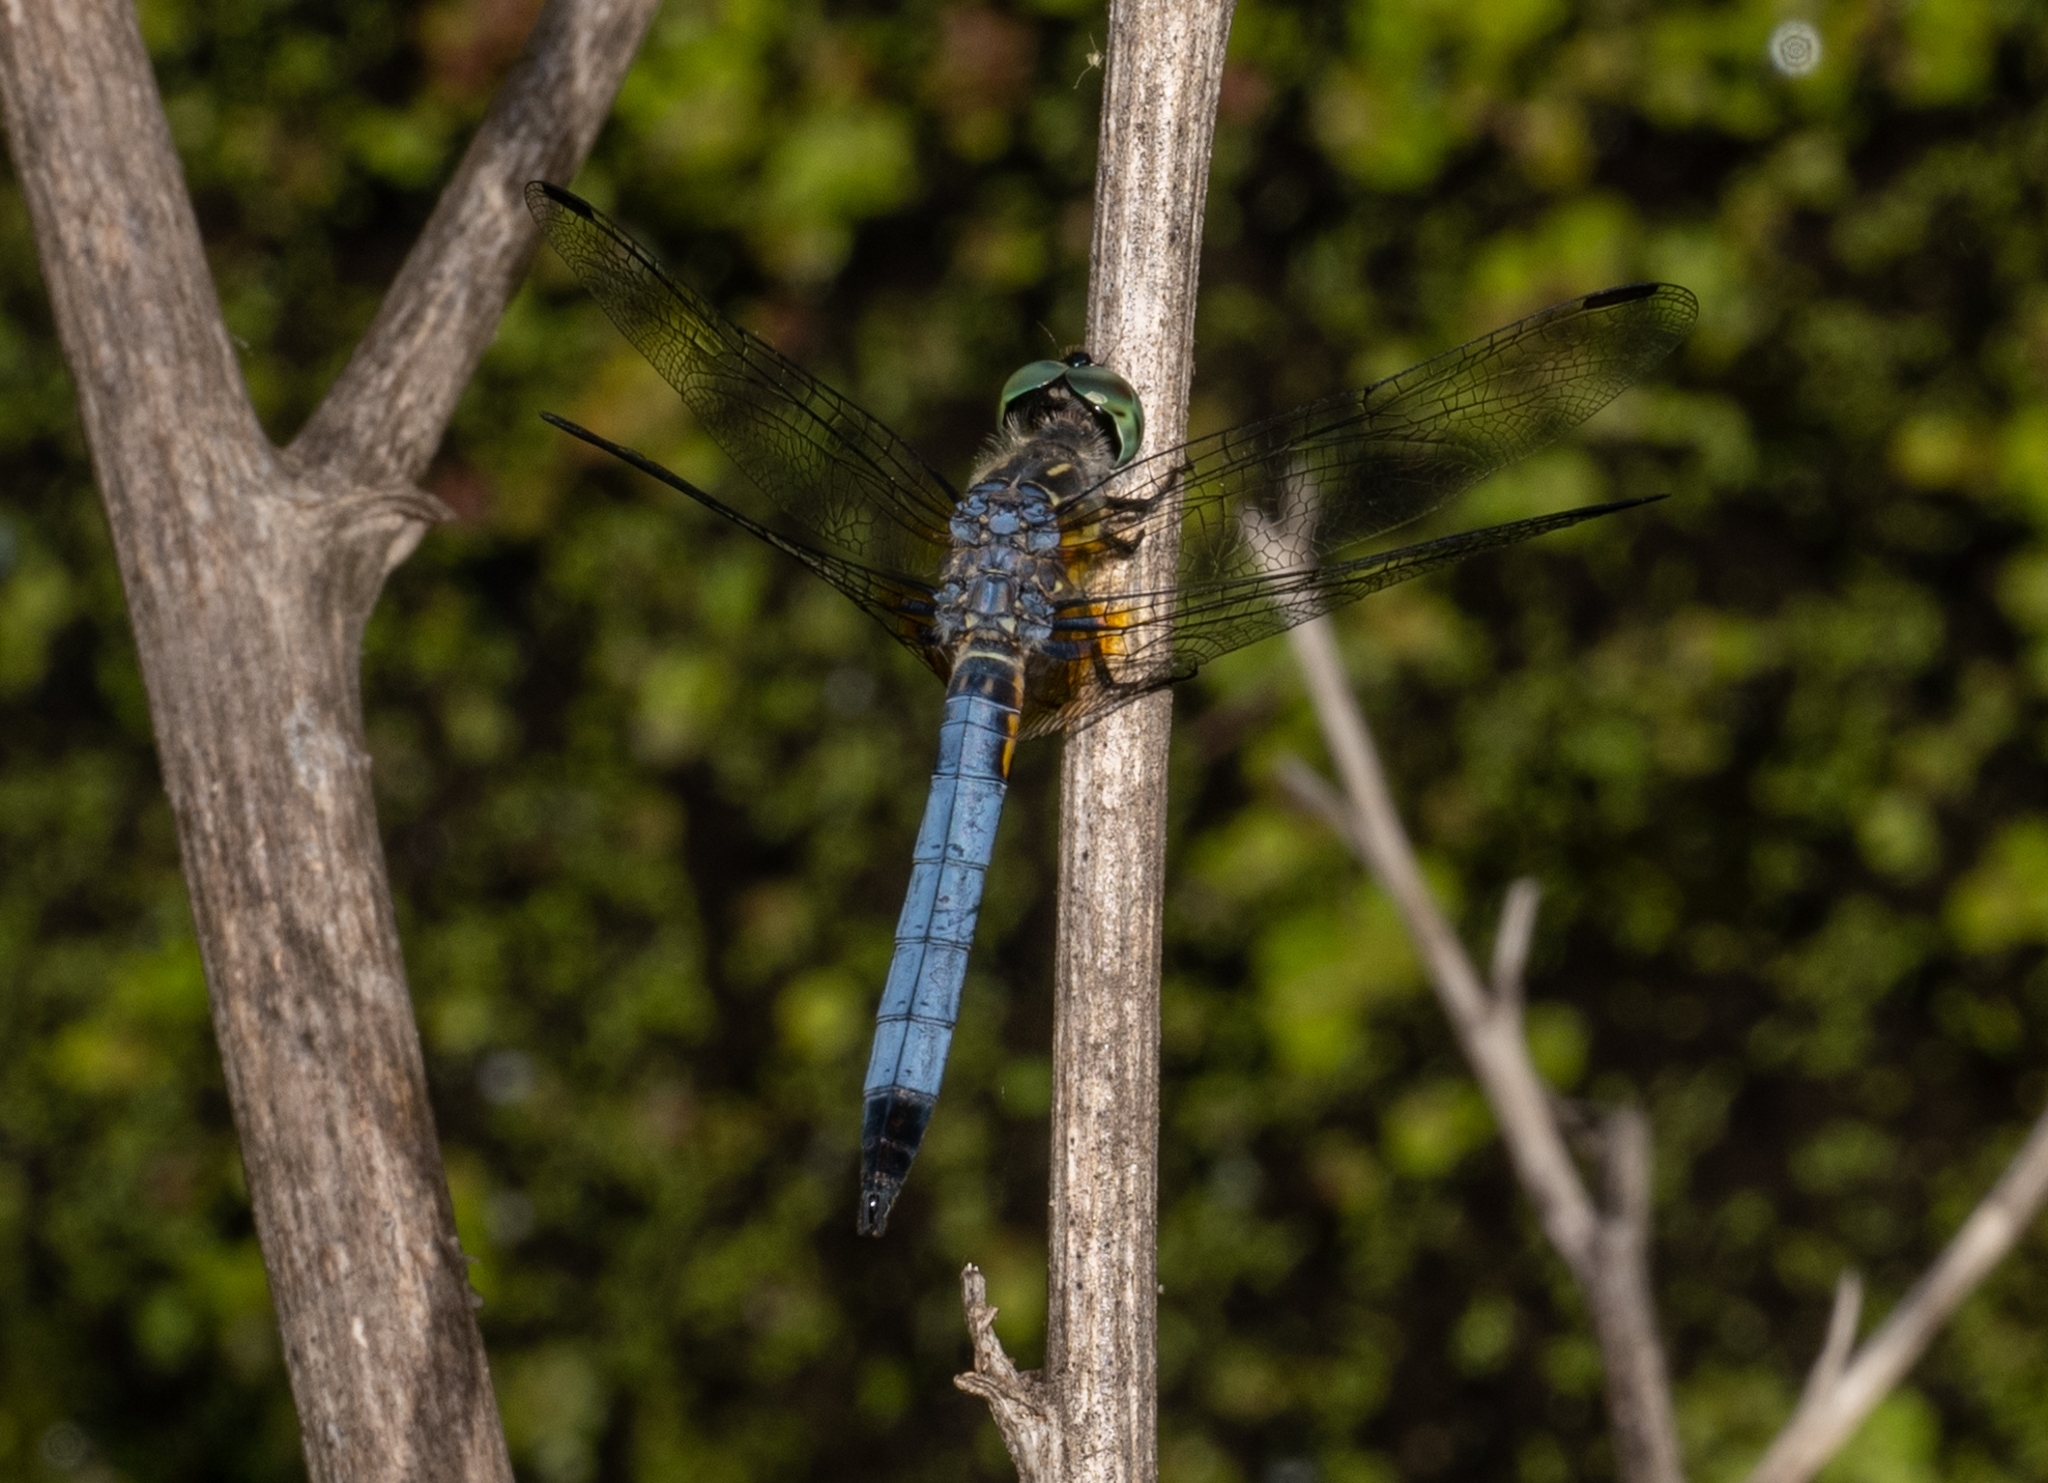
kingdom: Animalia
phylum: Arthropoda
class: Insecta
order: Odonata
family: Libellulidae
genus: Pachydiplax
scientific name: Pachydiplax longipennis
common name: Blue dasher
